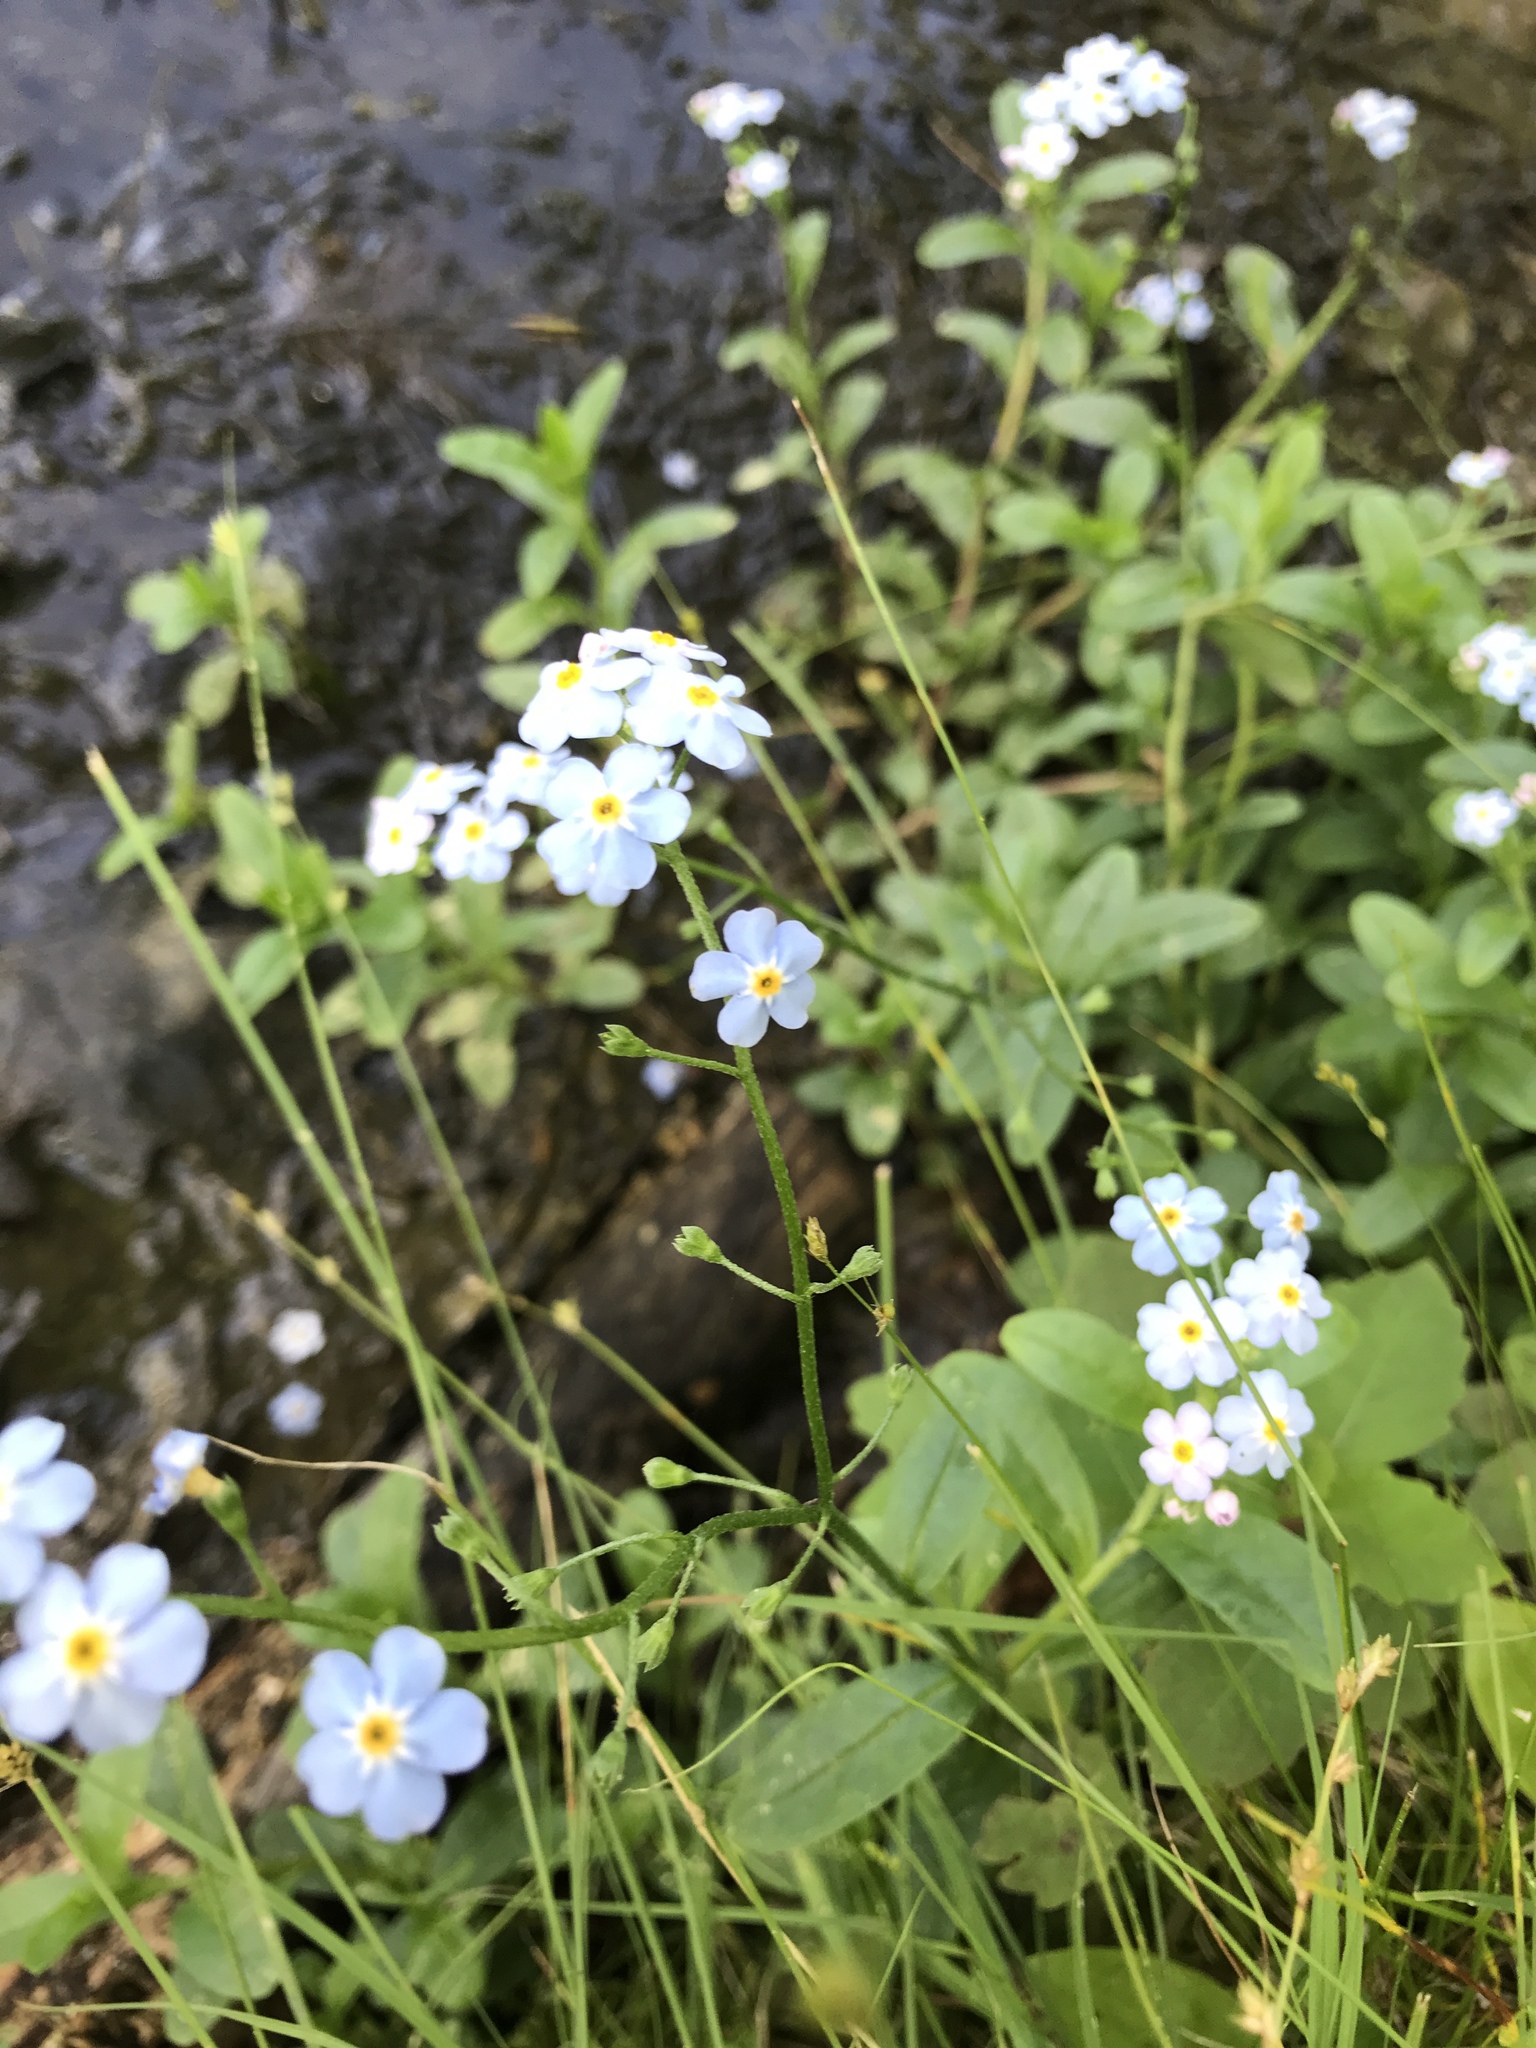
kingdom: Plantae
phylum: Tracheophyta
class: Magnoliopsida
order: Boraginales
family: Boraginaceae
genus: Myosotis
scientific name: Myosotis scorpioides
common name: Water forget-me-not
